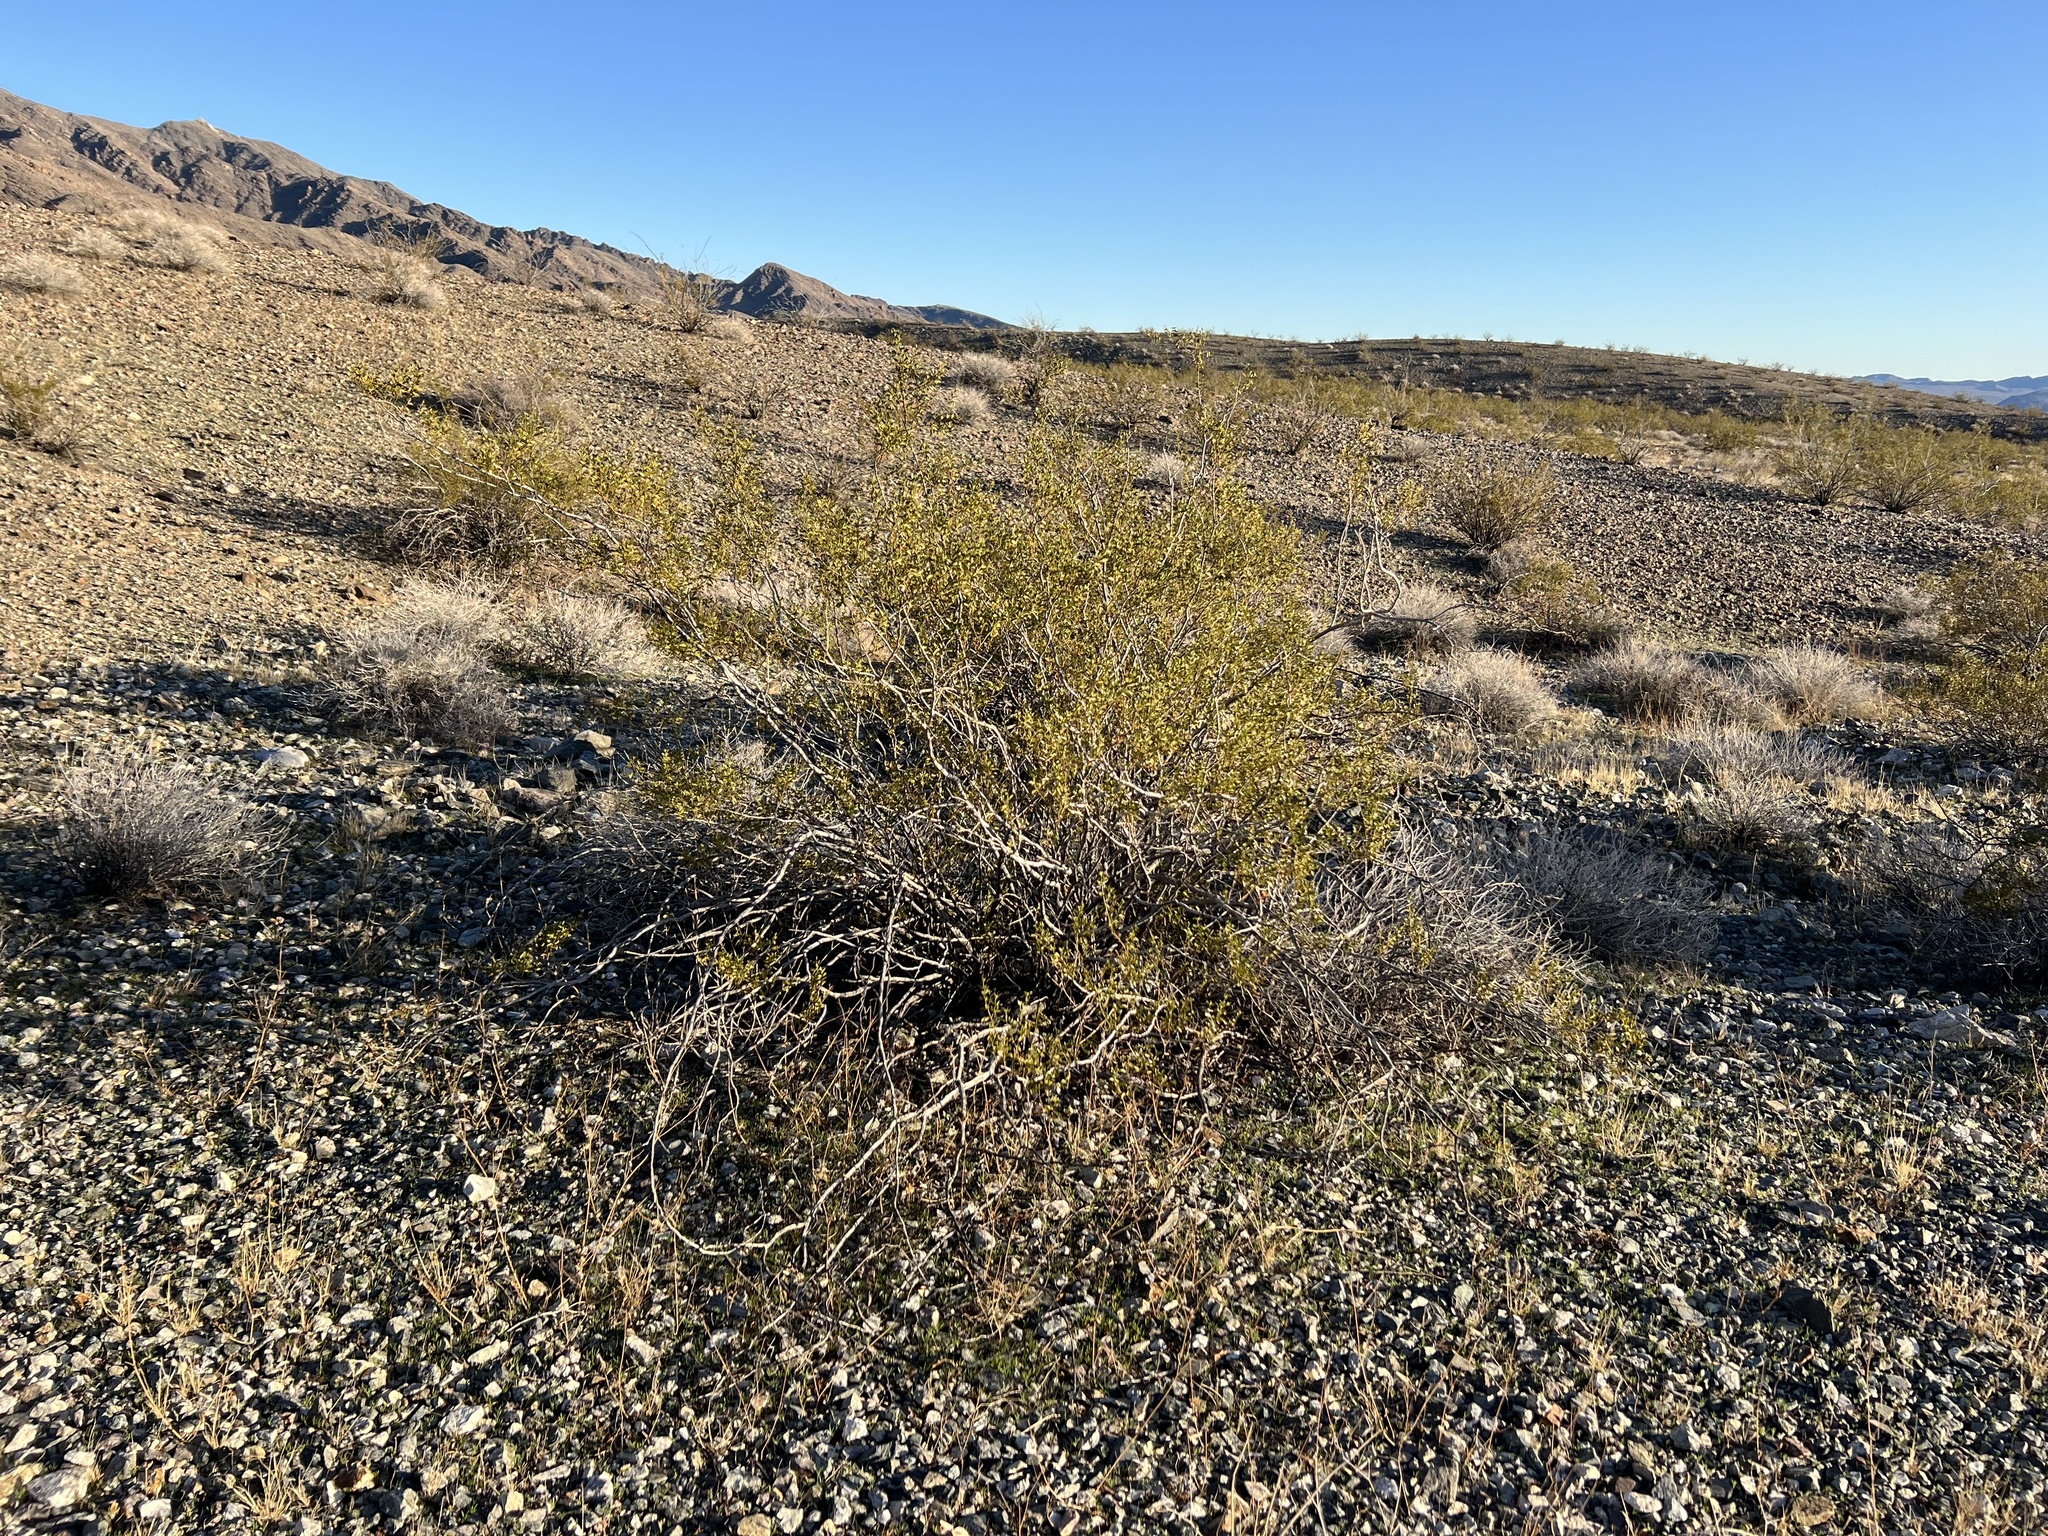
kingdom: Plantae
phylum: Tracheophyta
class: Magnoliopsida
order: Zygophyllales
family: Zygophyllaceae
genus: Larrea
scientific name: Larrea tridentata
